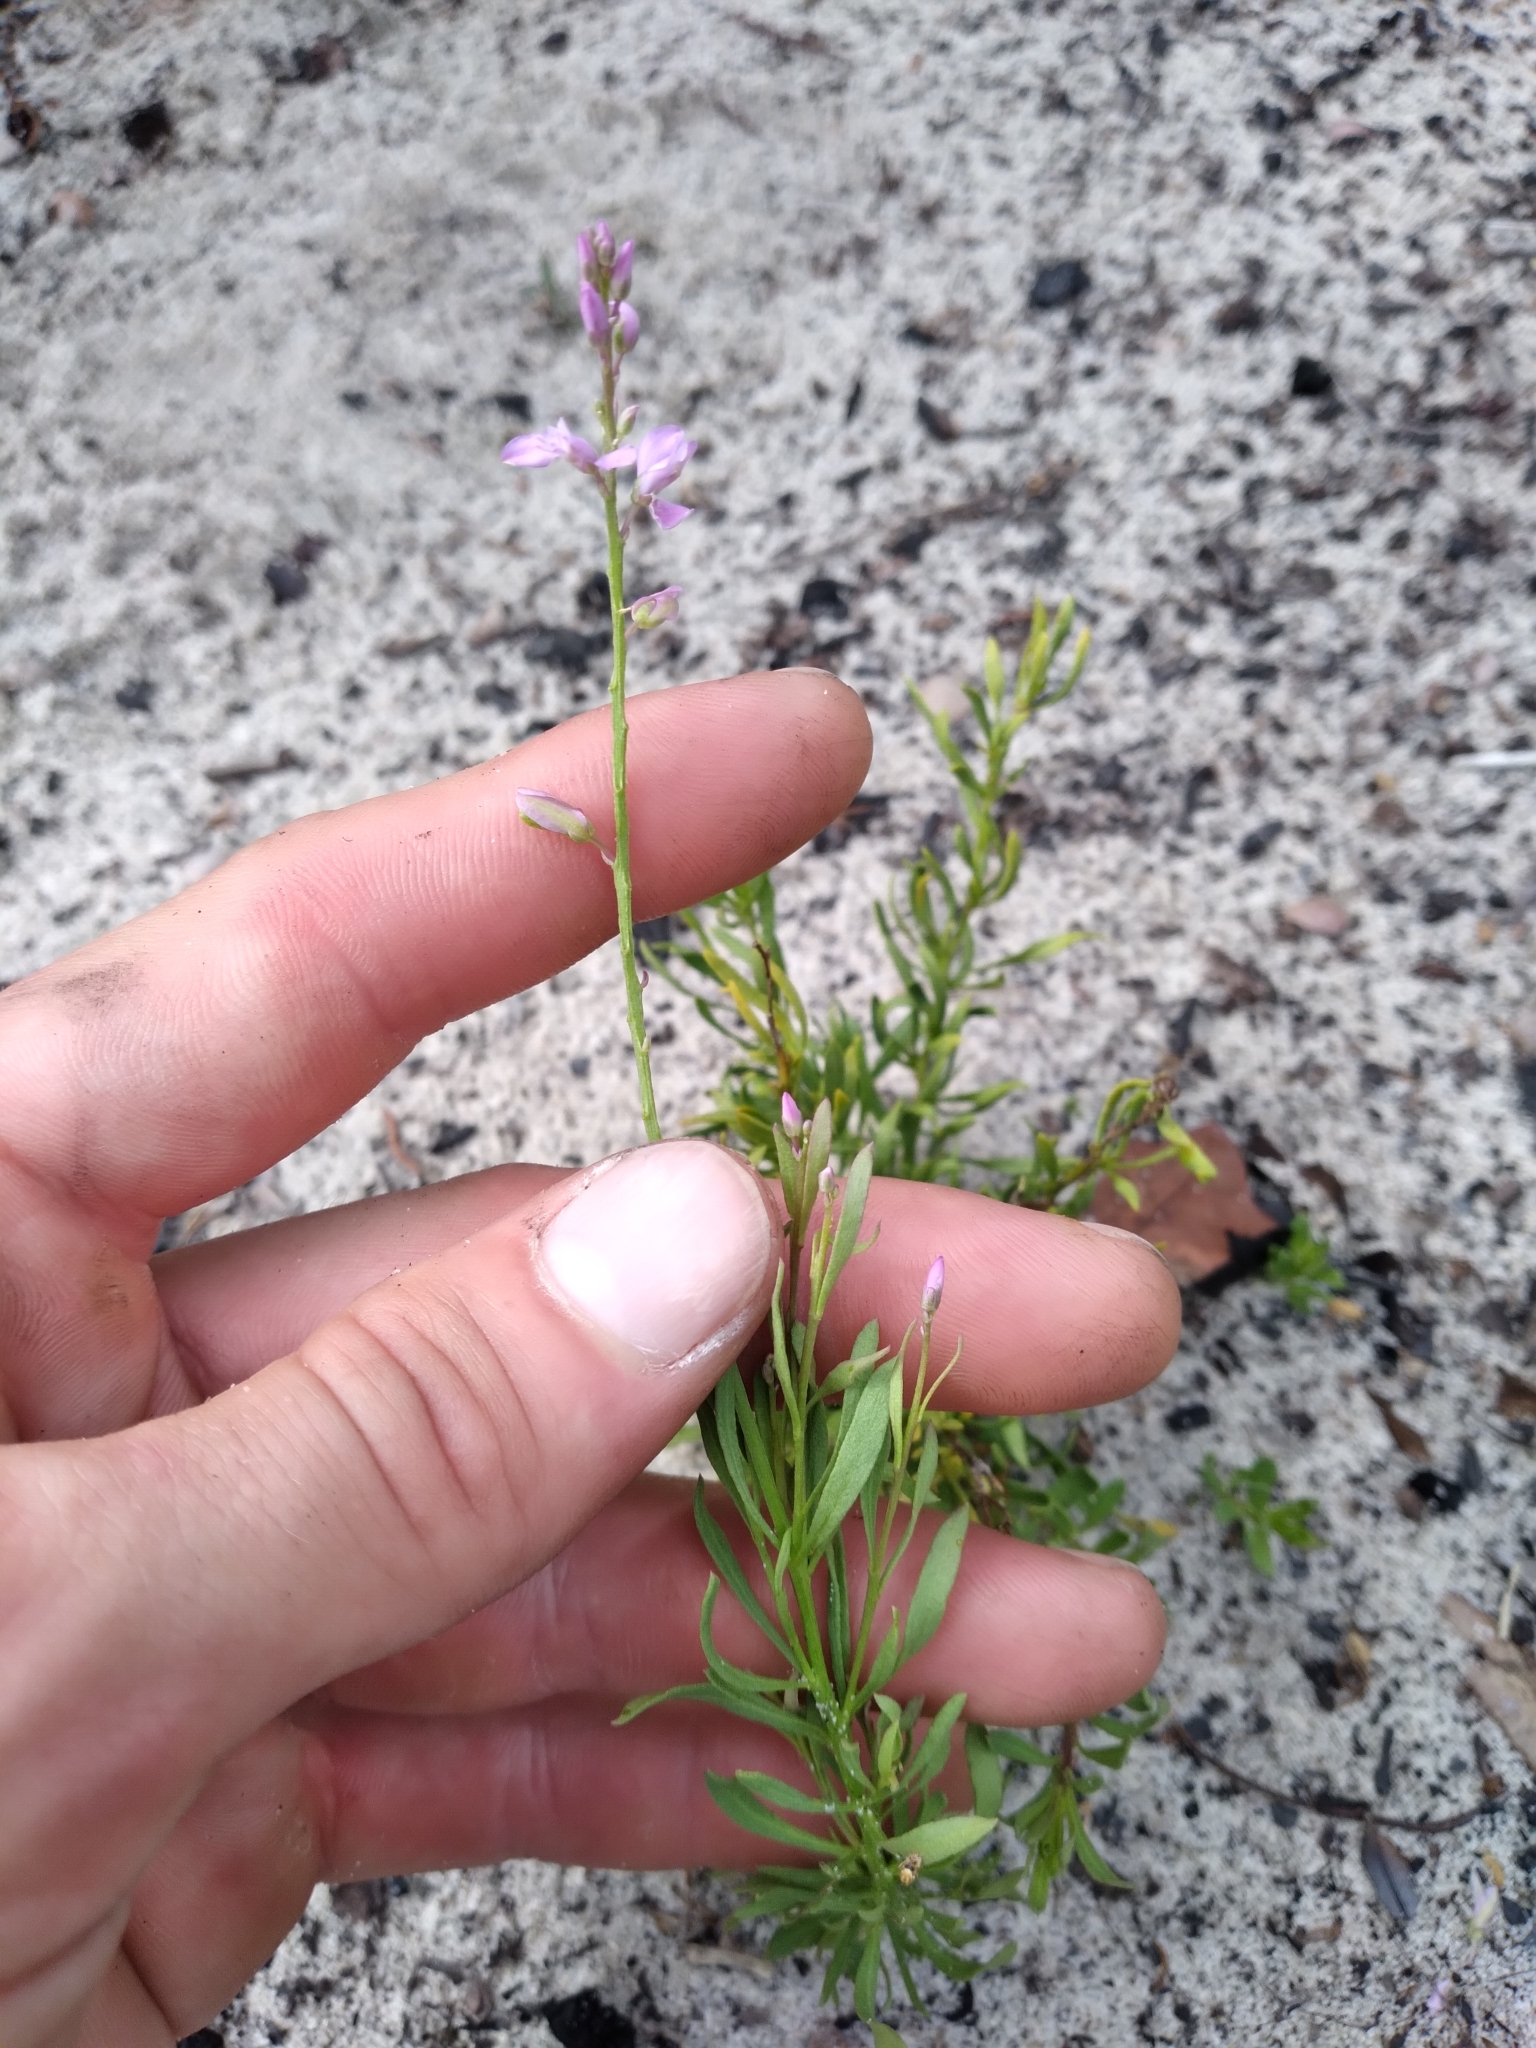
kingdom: Plantae
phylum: Tracheophyta
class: Magnoliopsida
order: Fabales
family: Polygalaceae
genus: Polygala
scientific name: Polygala lewtonii
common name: Lewton's polygala
